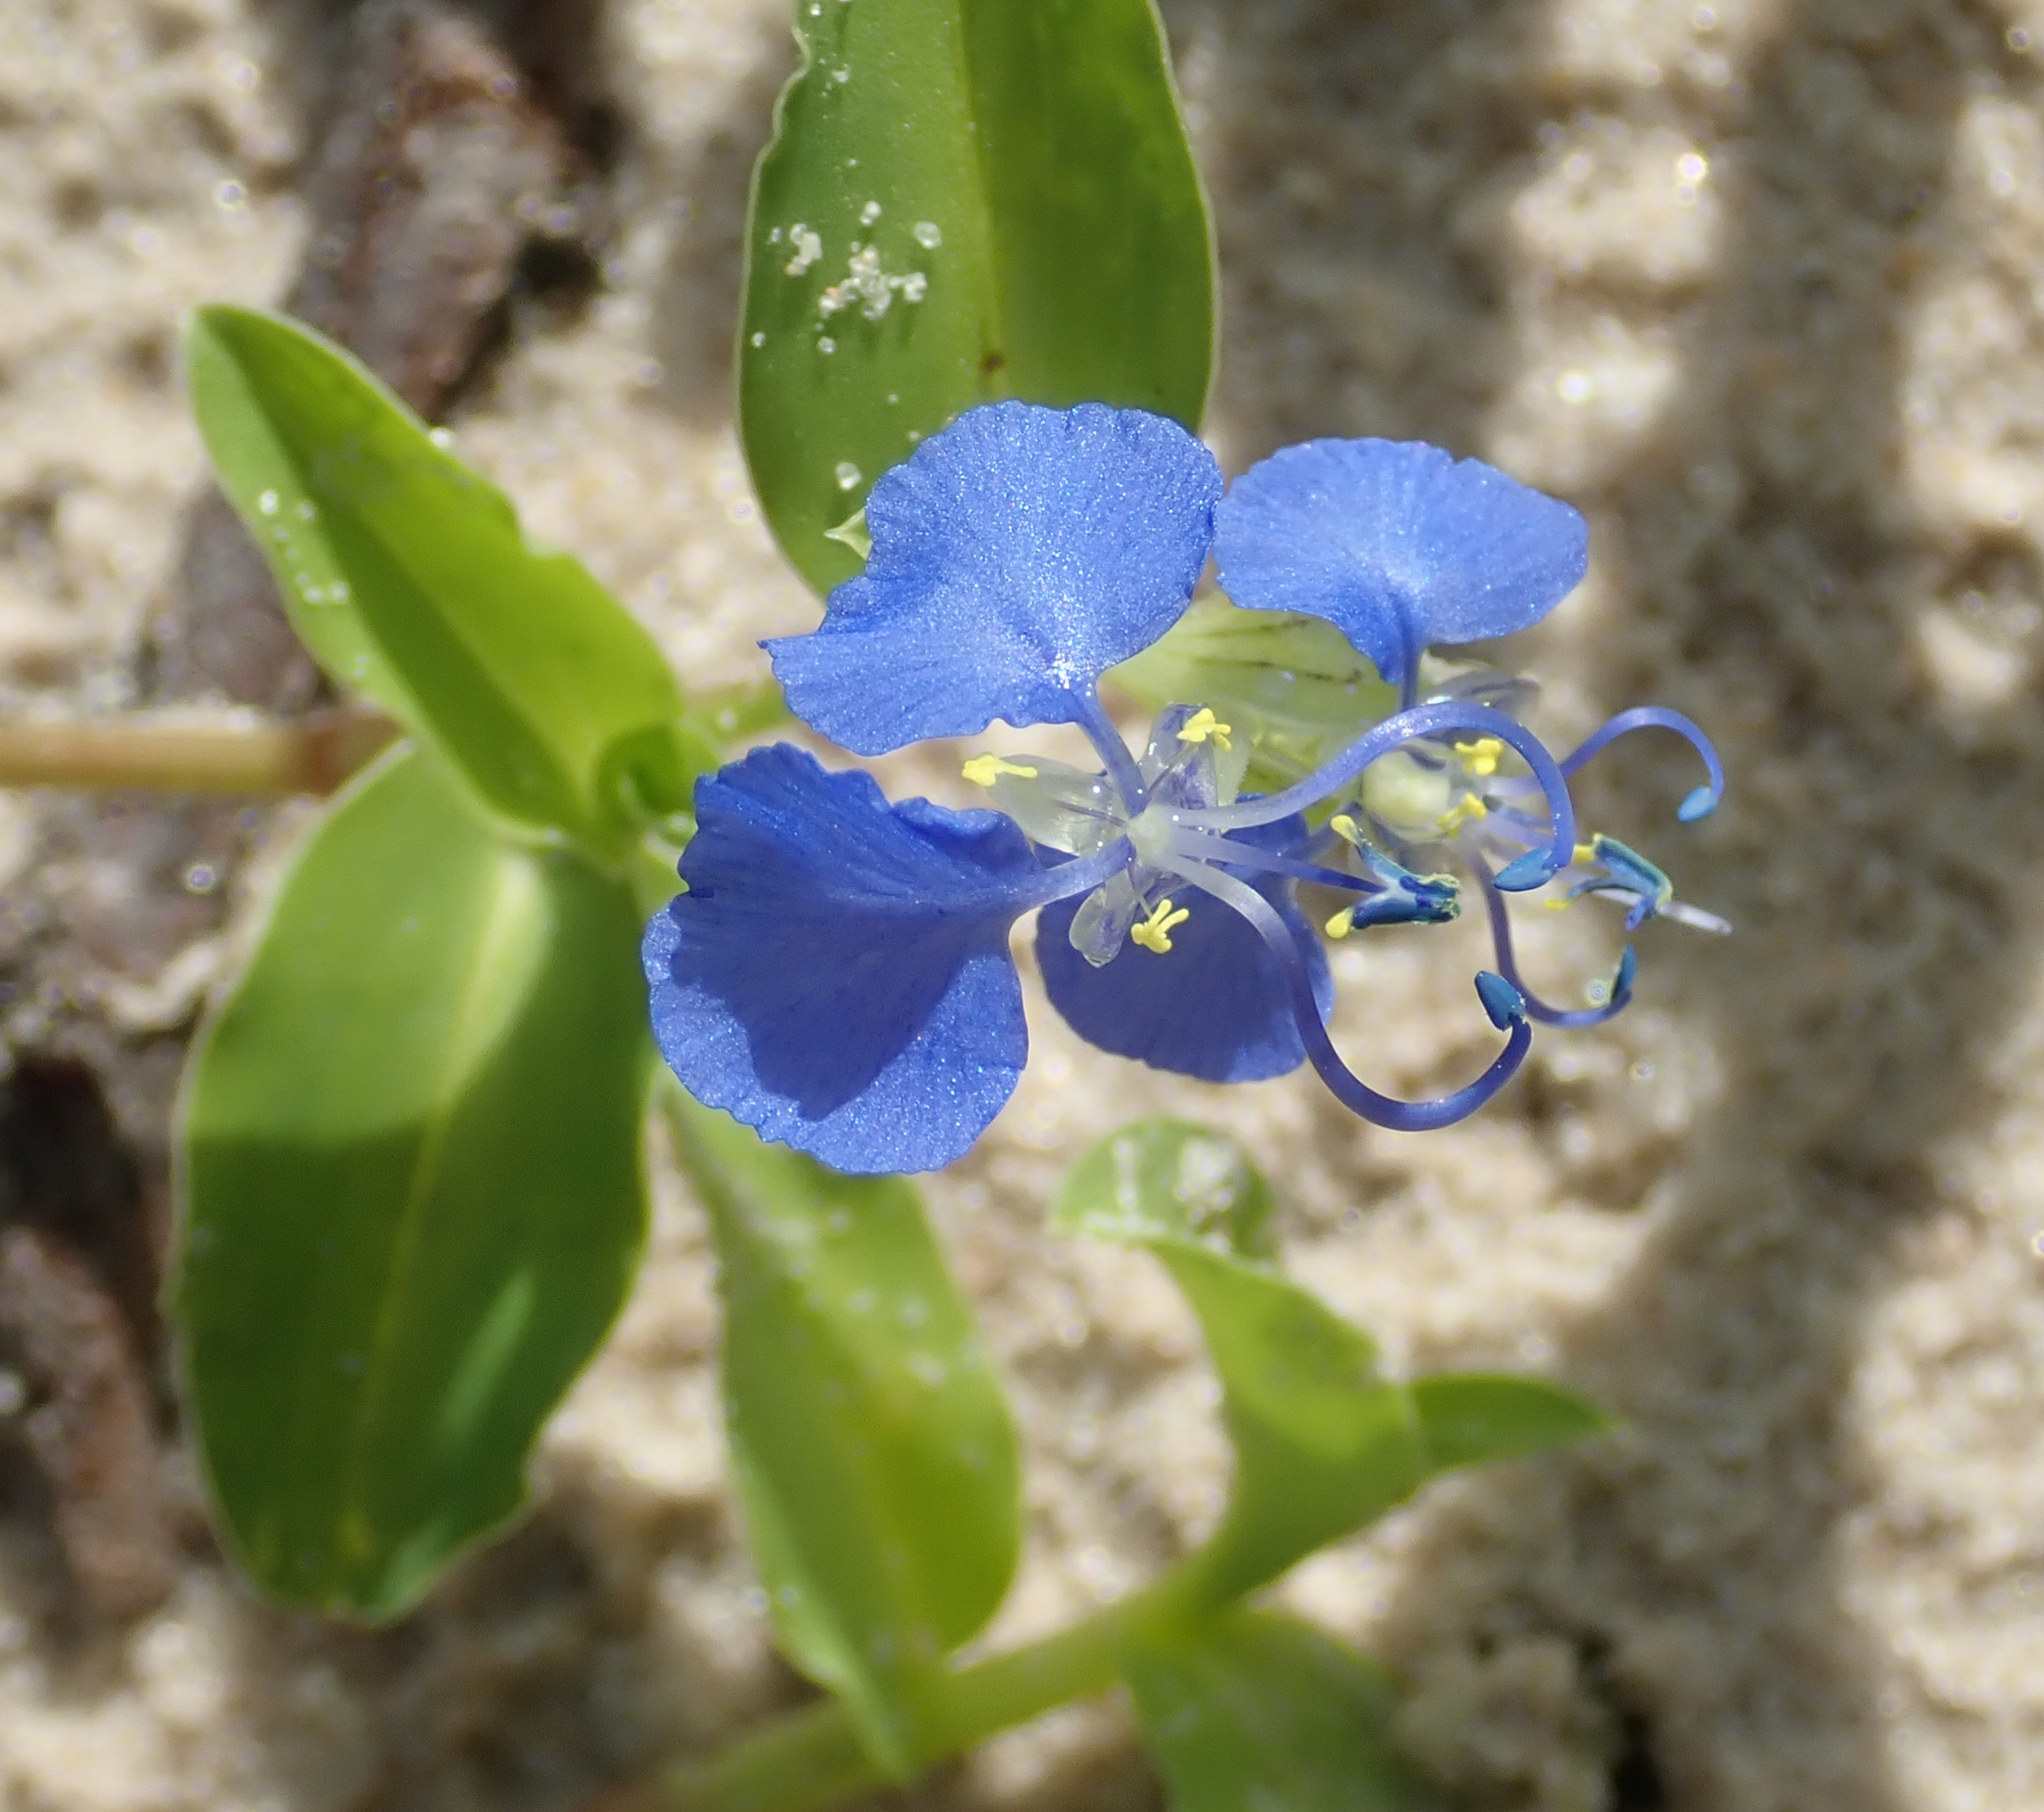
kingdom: Plantae
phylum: Tracheophyta
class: Liliopsida
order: Commelinales
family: Commelinaceae
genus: Commelina
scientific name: Commelina forskaolii
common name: Rat's ear
